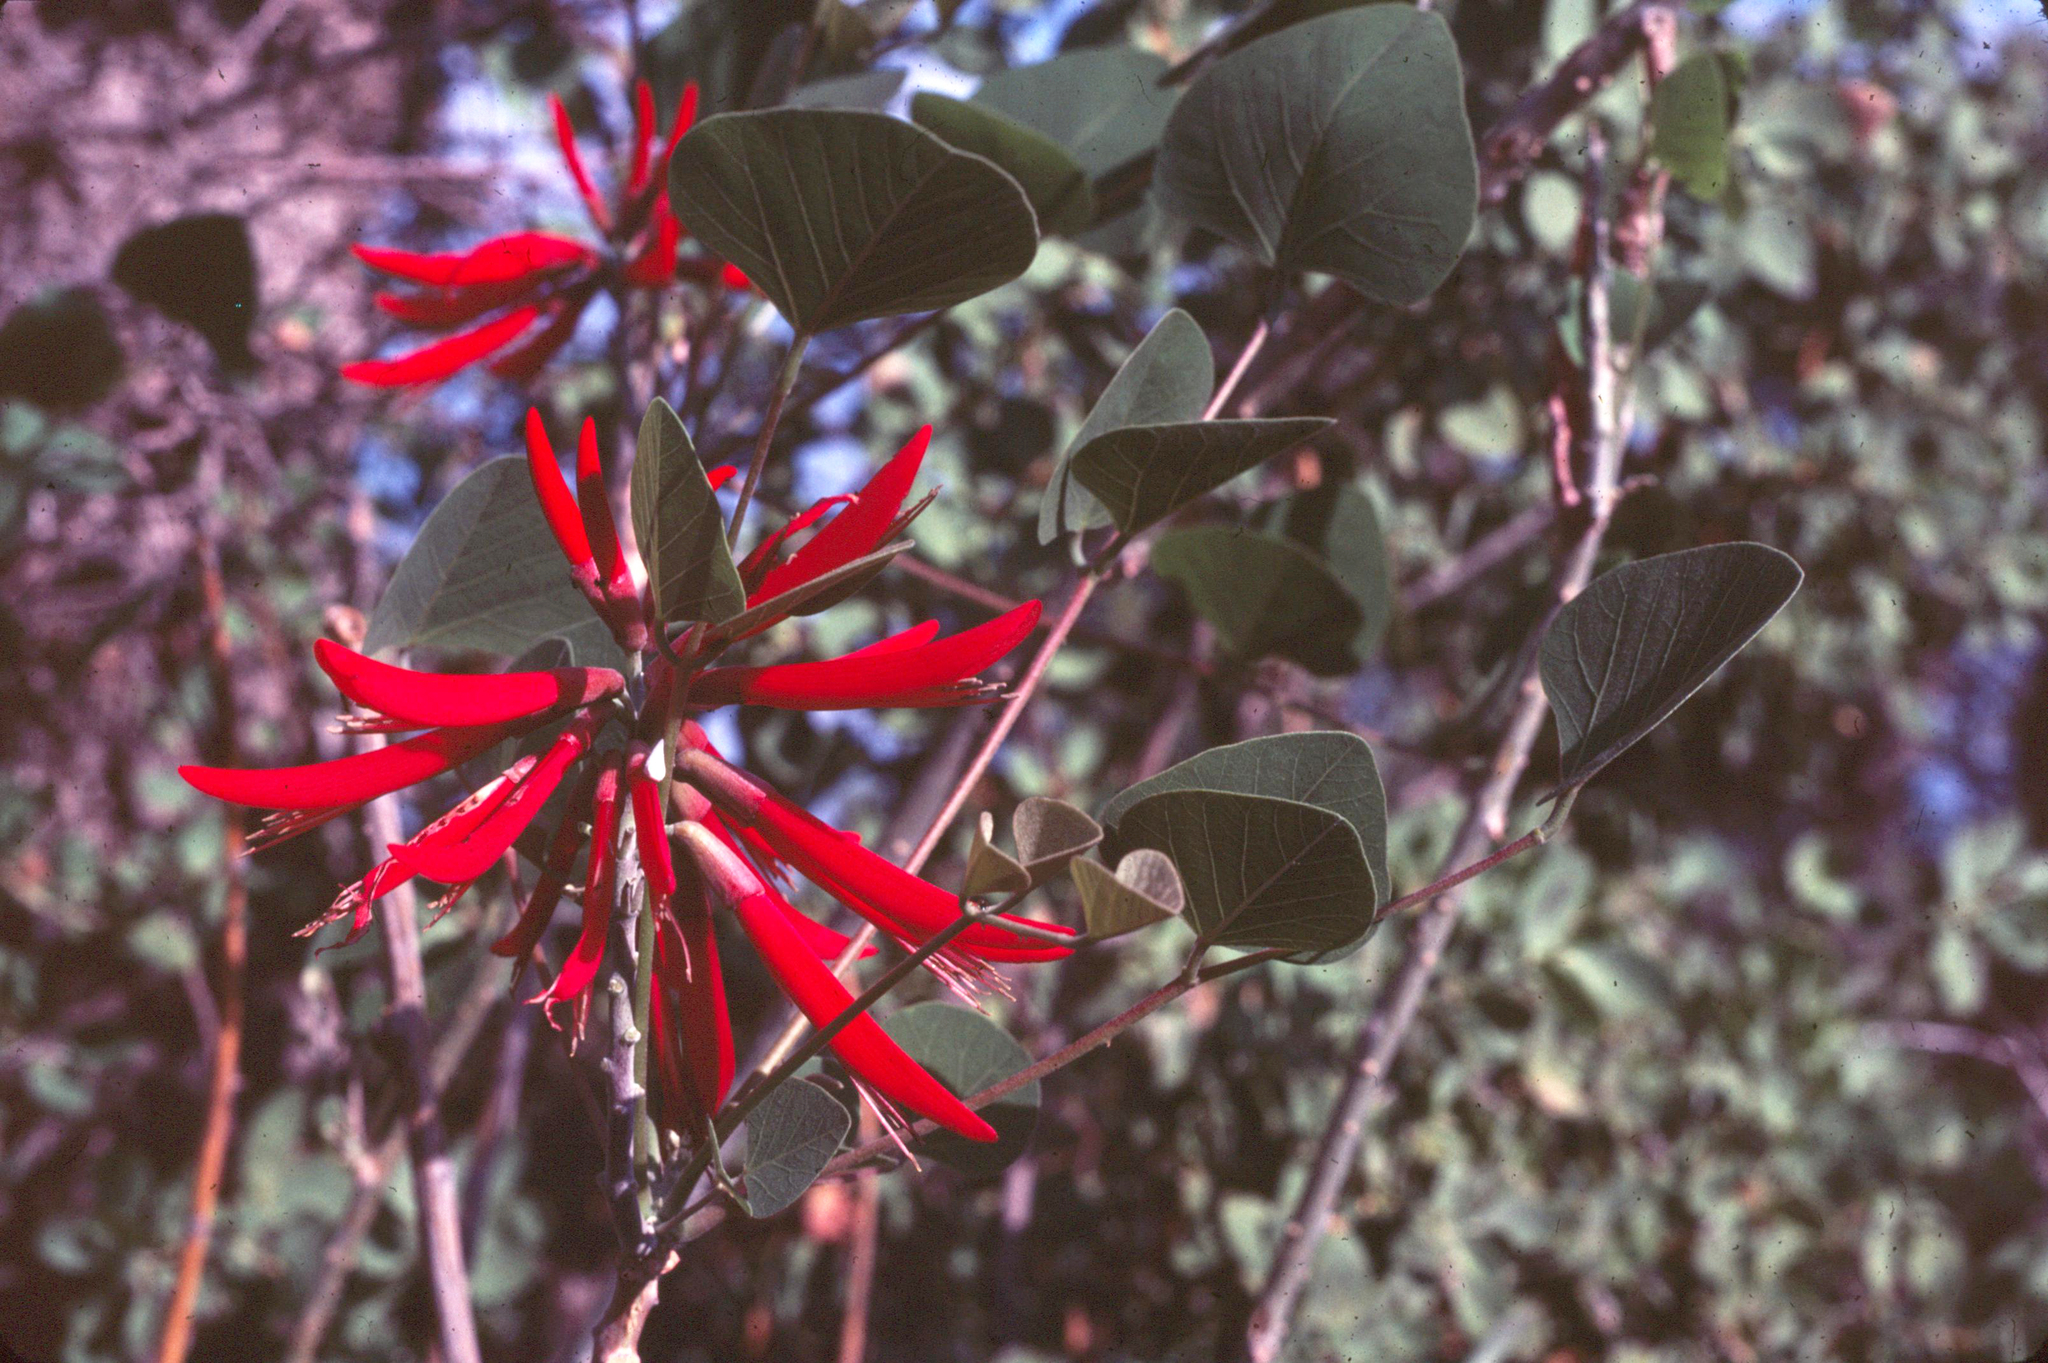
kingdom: Plantae
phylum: Tracheophyta
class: Magnoliopsida
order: Fabales
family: Fabaceae
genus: Erythrina
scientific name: Erythrina flabelliformis
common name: Chilicote
